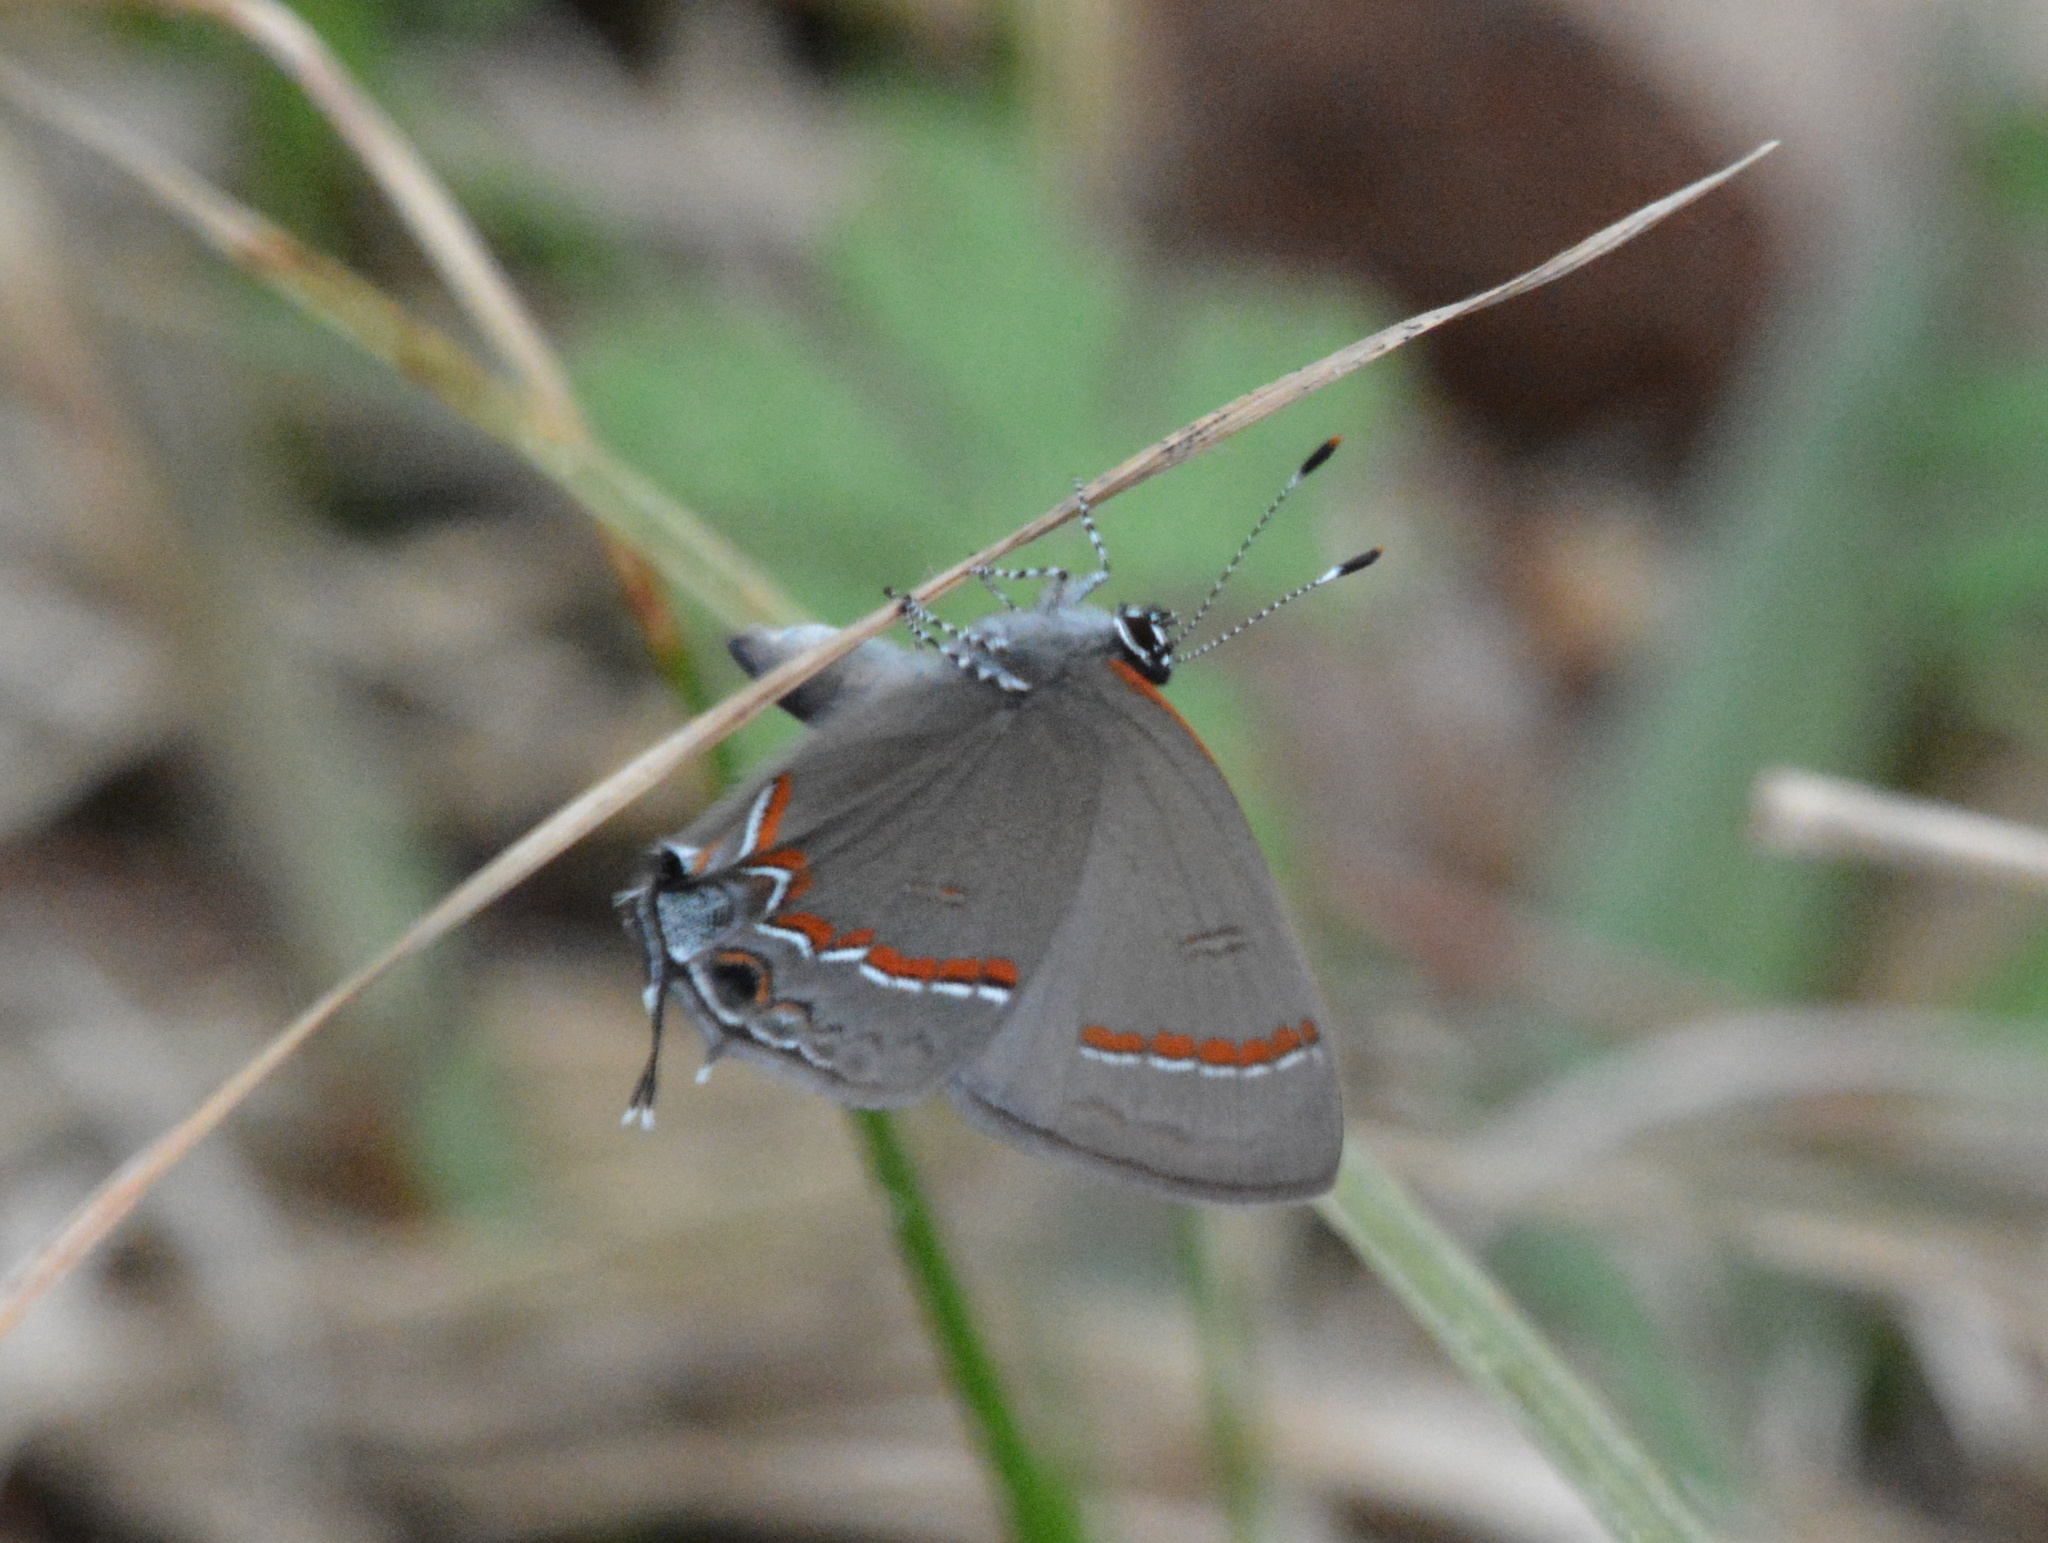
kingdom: Animalia
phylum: Arthropoda
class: Insecta
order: Lepidoptera
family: Lycaenidae
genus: Calycopis
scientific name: Calycopis cecrops
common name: Red-banded hairstreak
